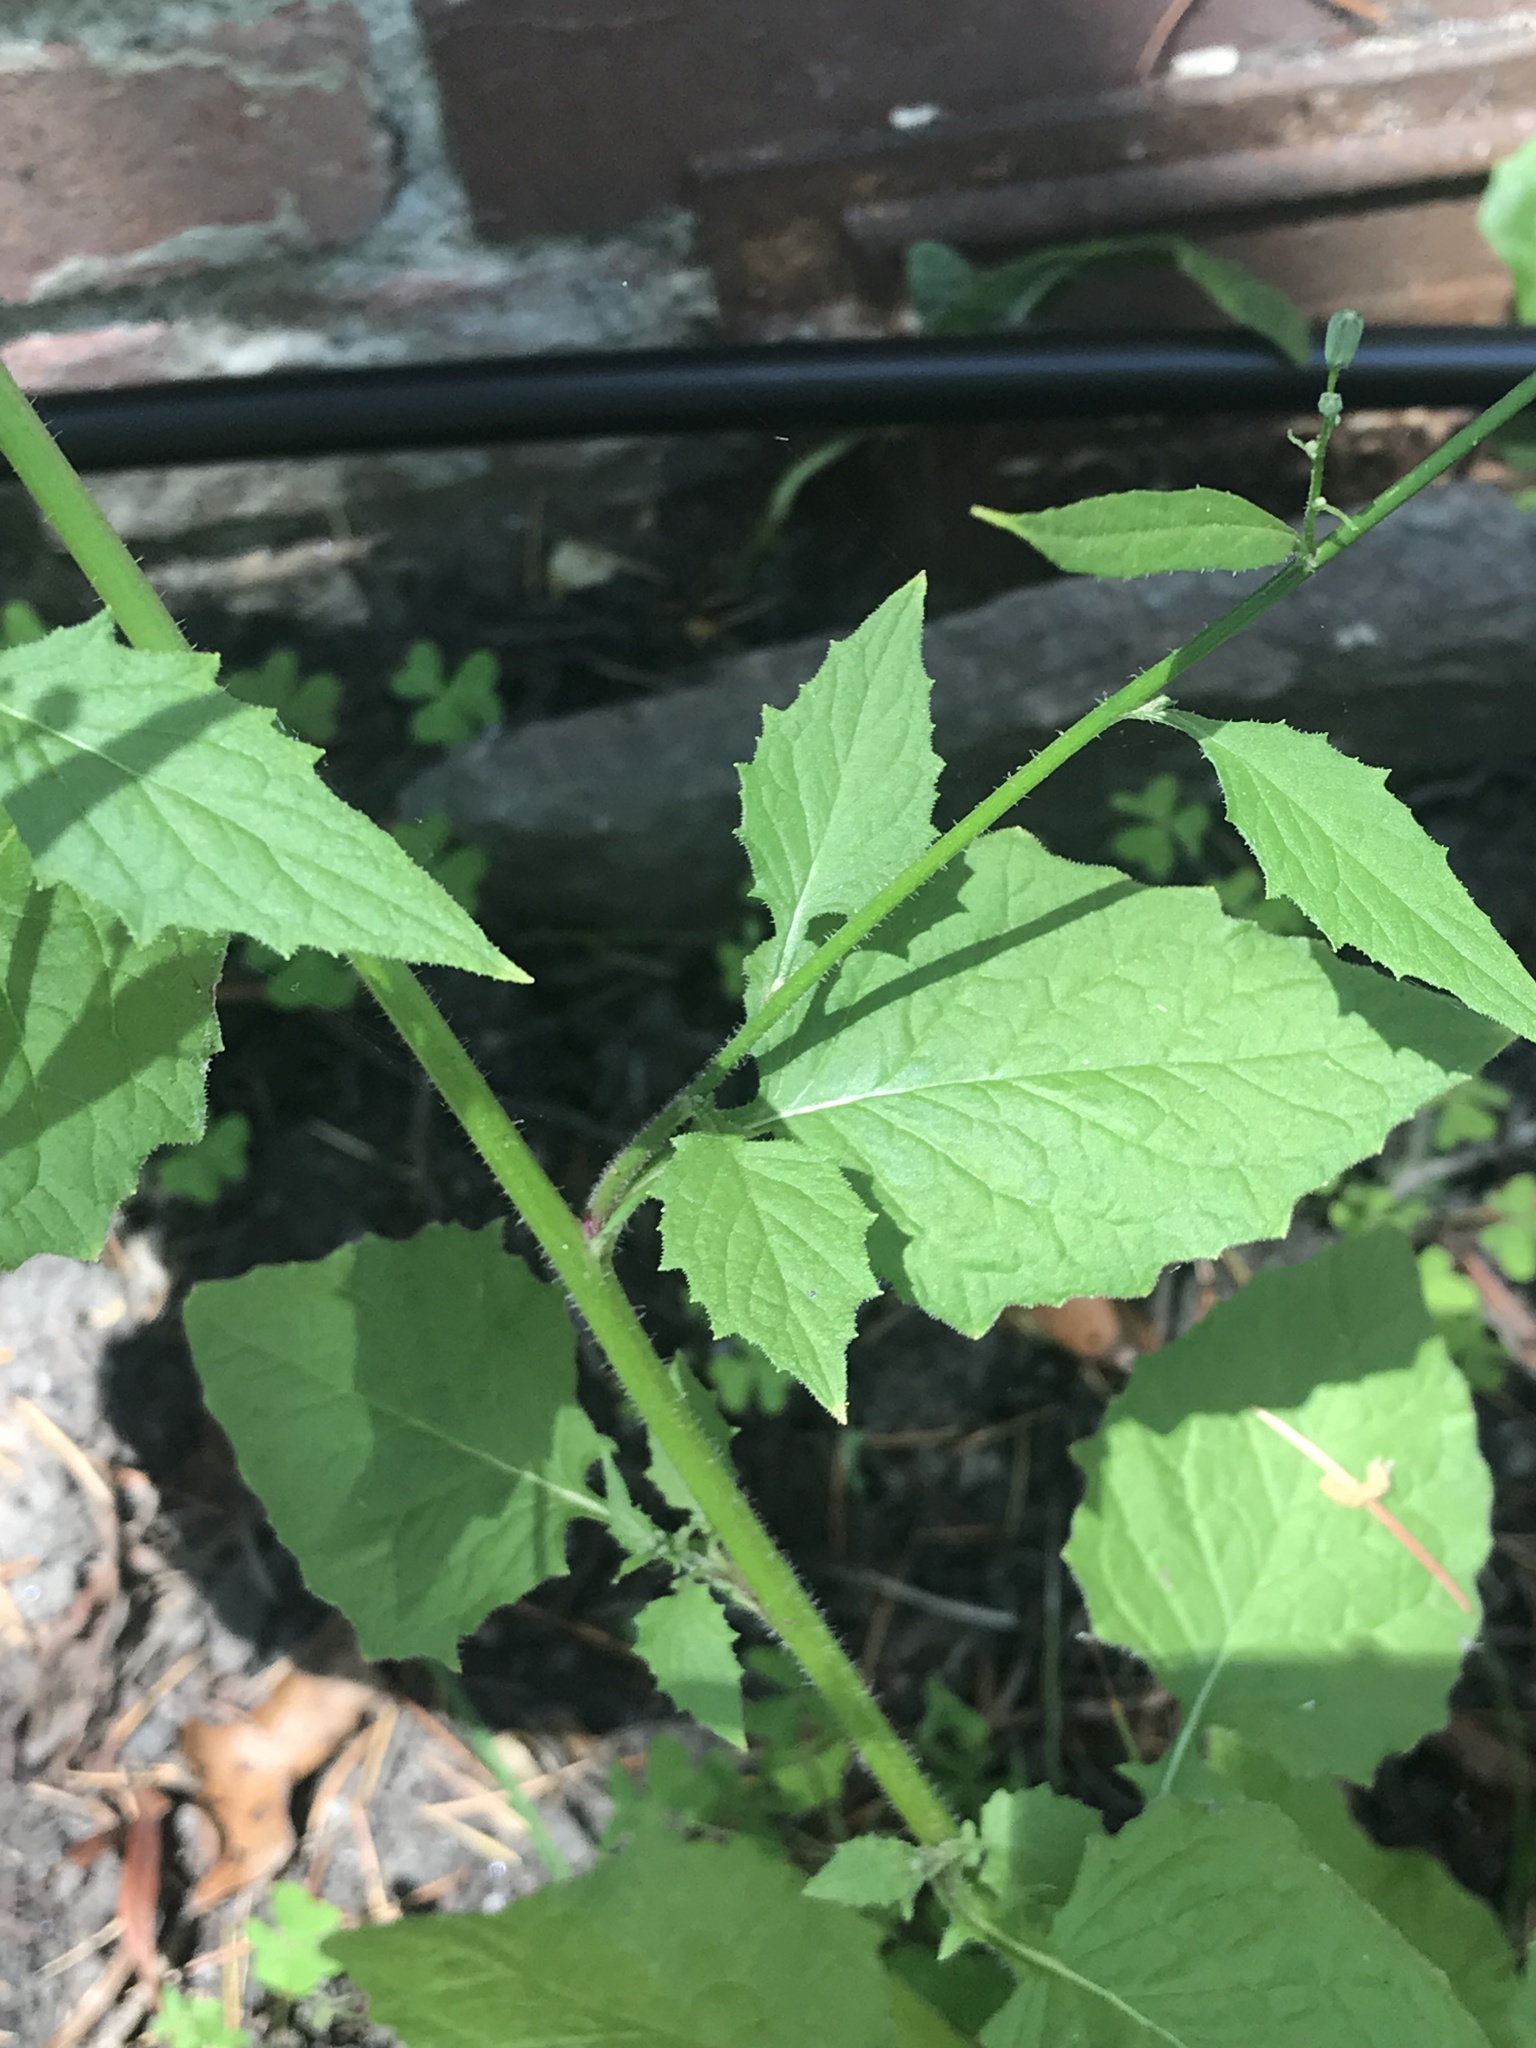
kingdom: Plantae
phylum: Tracheophyta
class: Magnoliopsida
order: Asterales
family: Asteraceae
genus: Lapsana
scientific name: Lapsana communis
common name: Nipplewort
